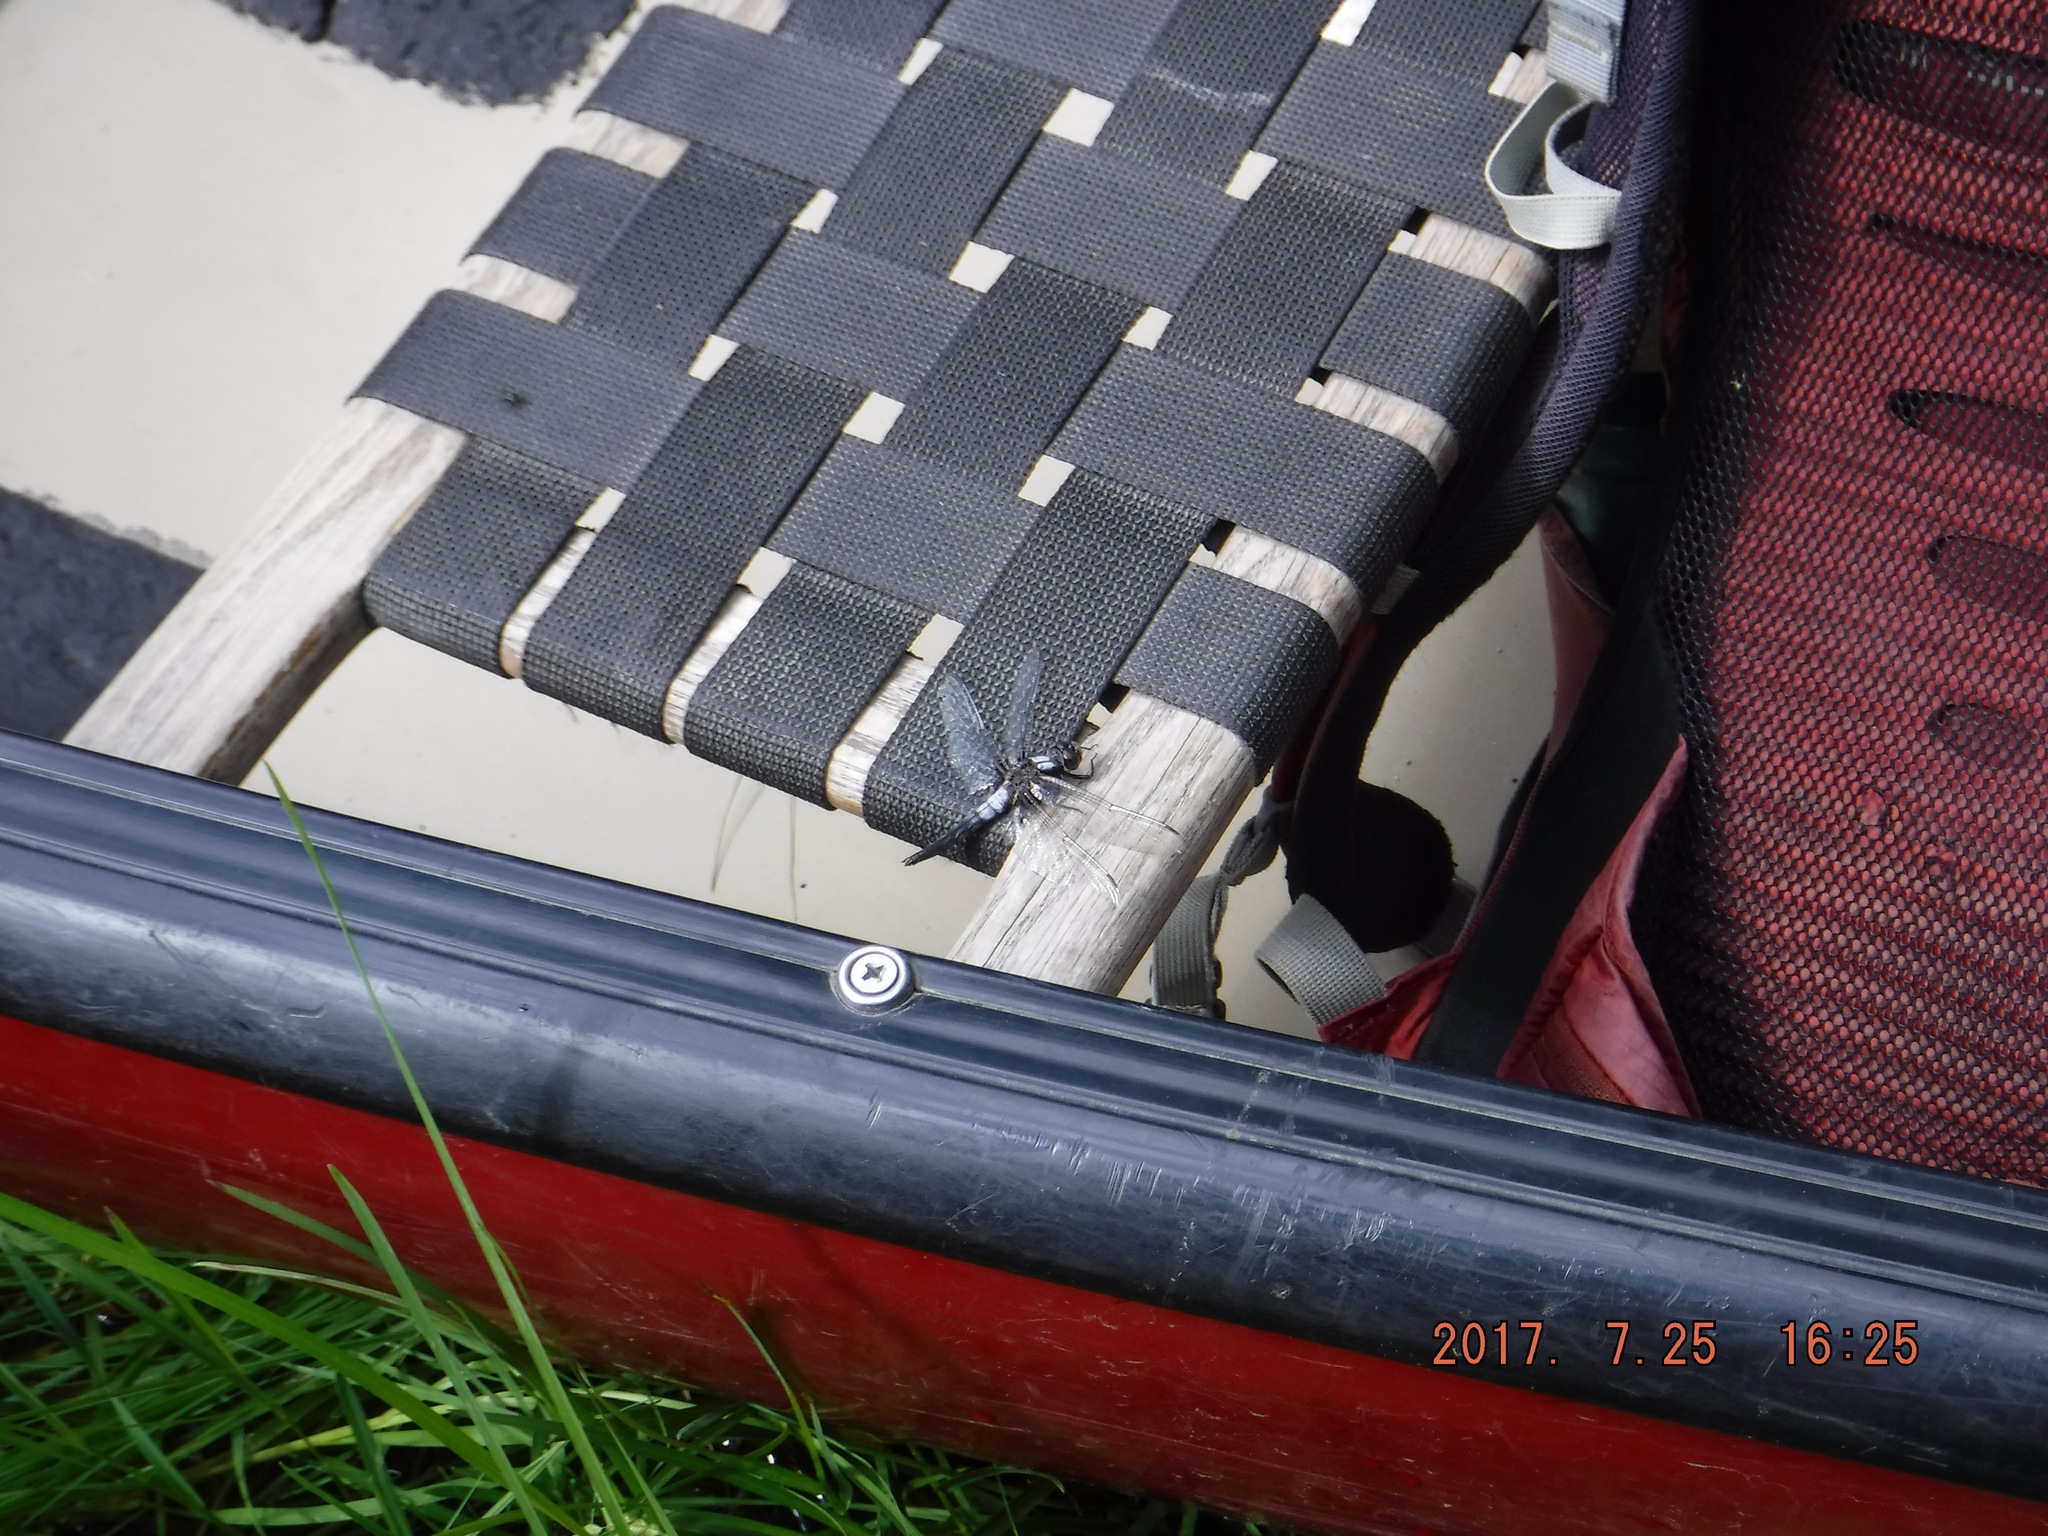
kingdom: Animalia
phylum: Arthropoda
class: Insecta
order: Odonata
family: Libellulidae
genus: Ladona
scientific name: Ladona julia
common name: Chalk-fronted corporal
